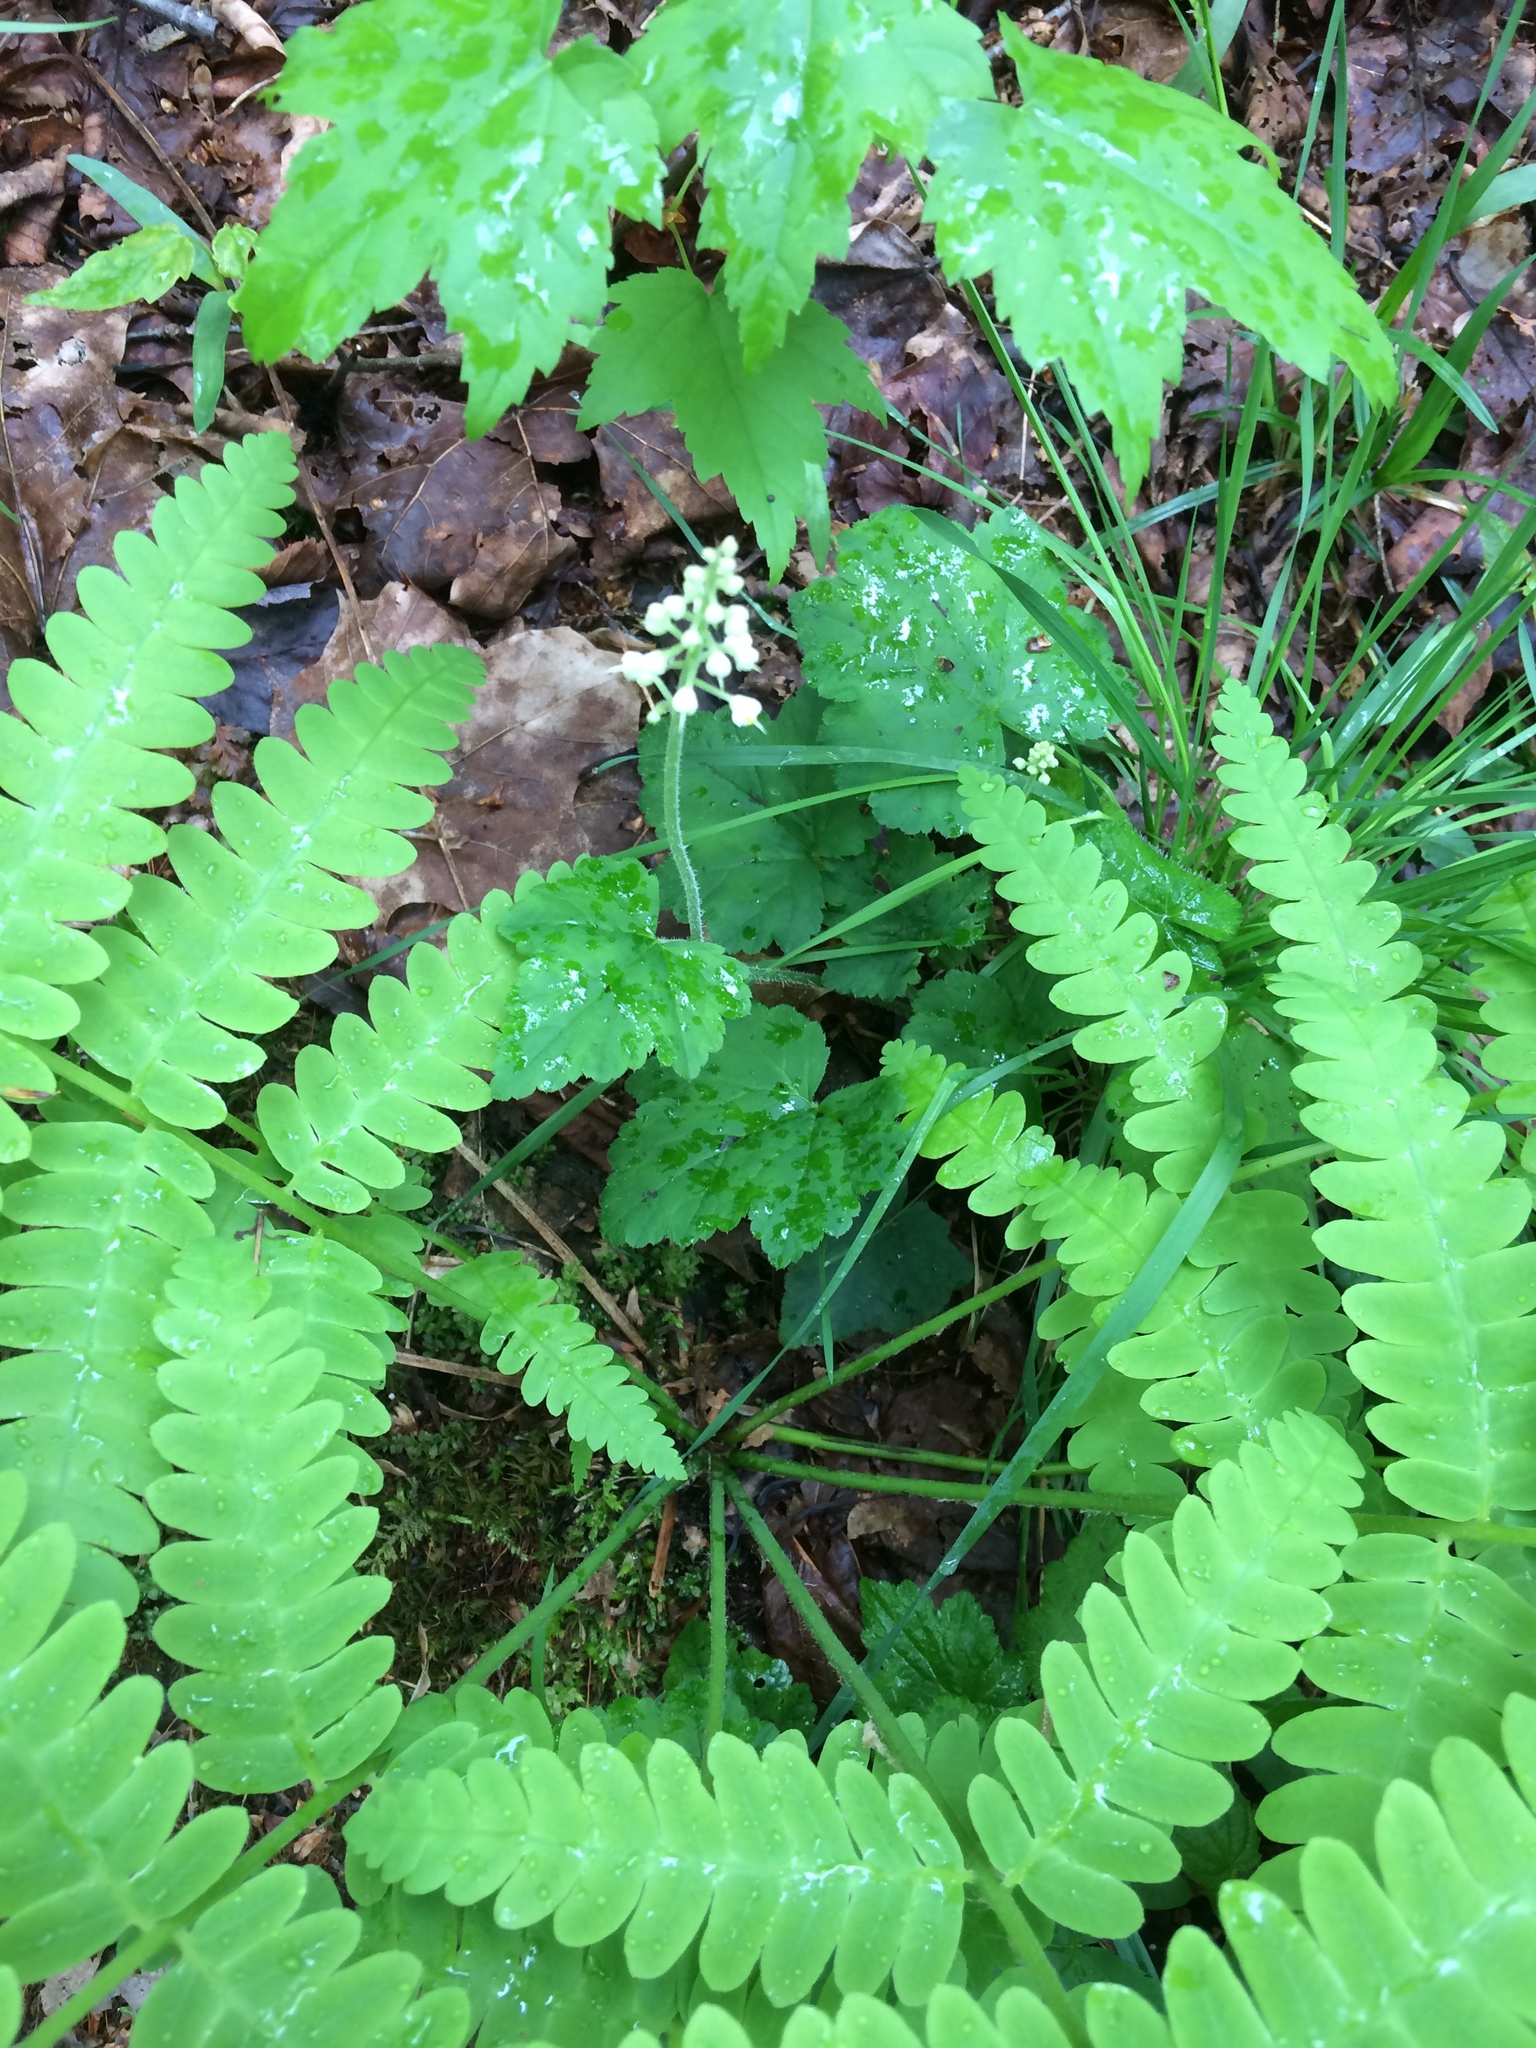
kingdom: Plantae
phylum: Tracheophyta
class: Magnoliopsida
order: Saxifragales
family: Saxifragaceae
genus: Tiarella
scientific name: Tiarella stolonifera
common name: Stoloniferous foamflower
